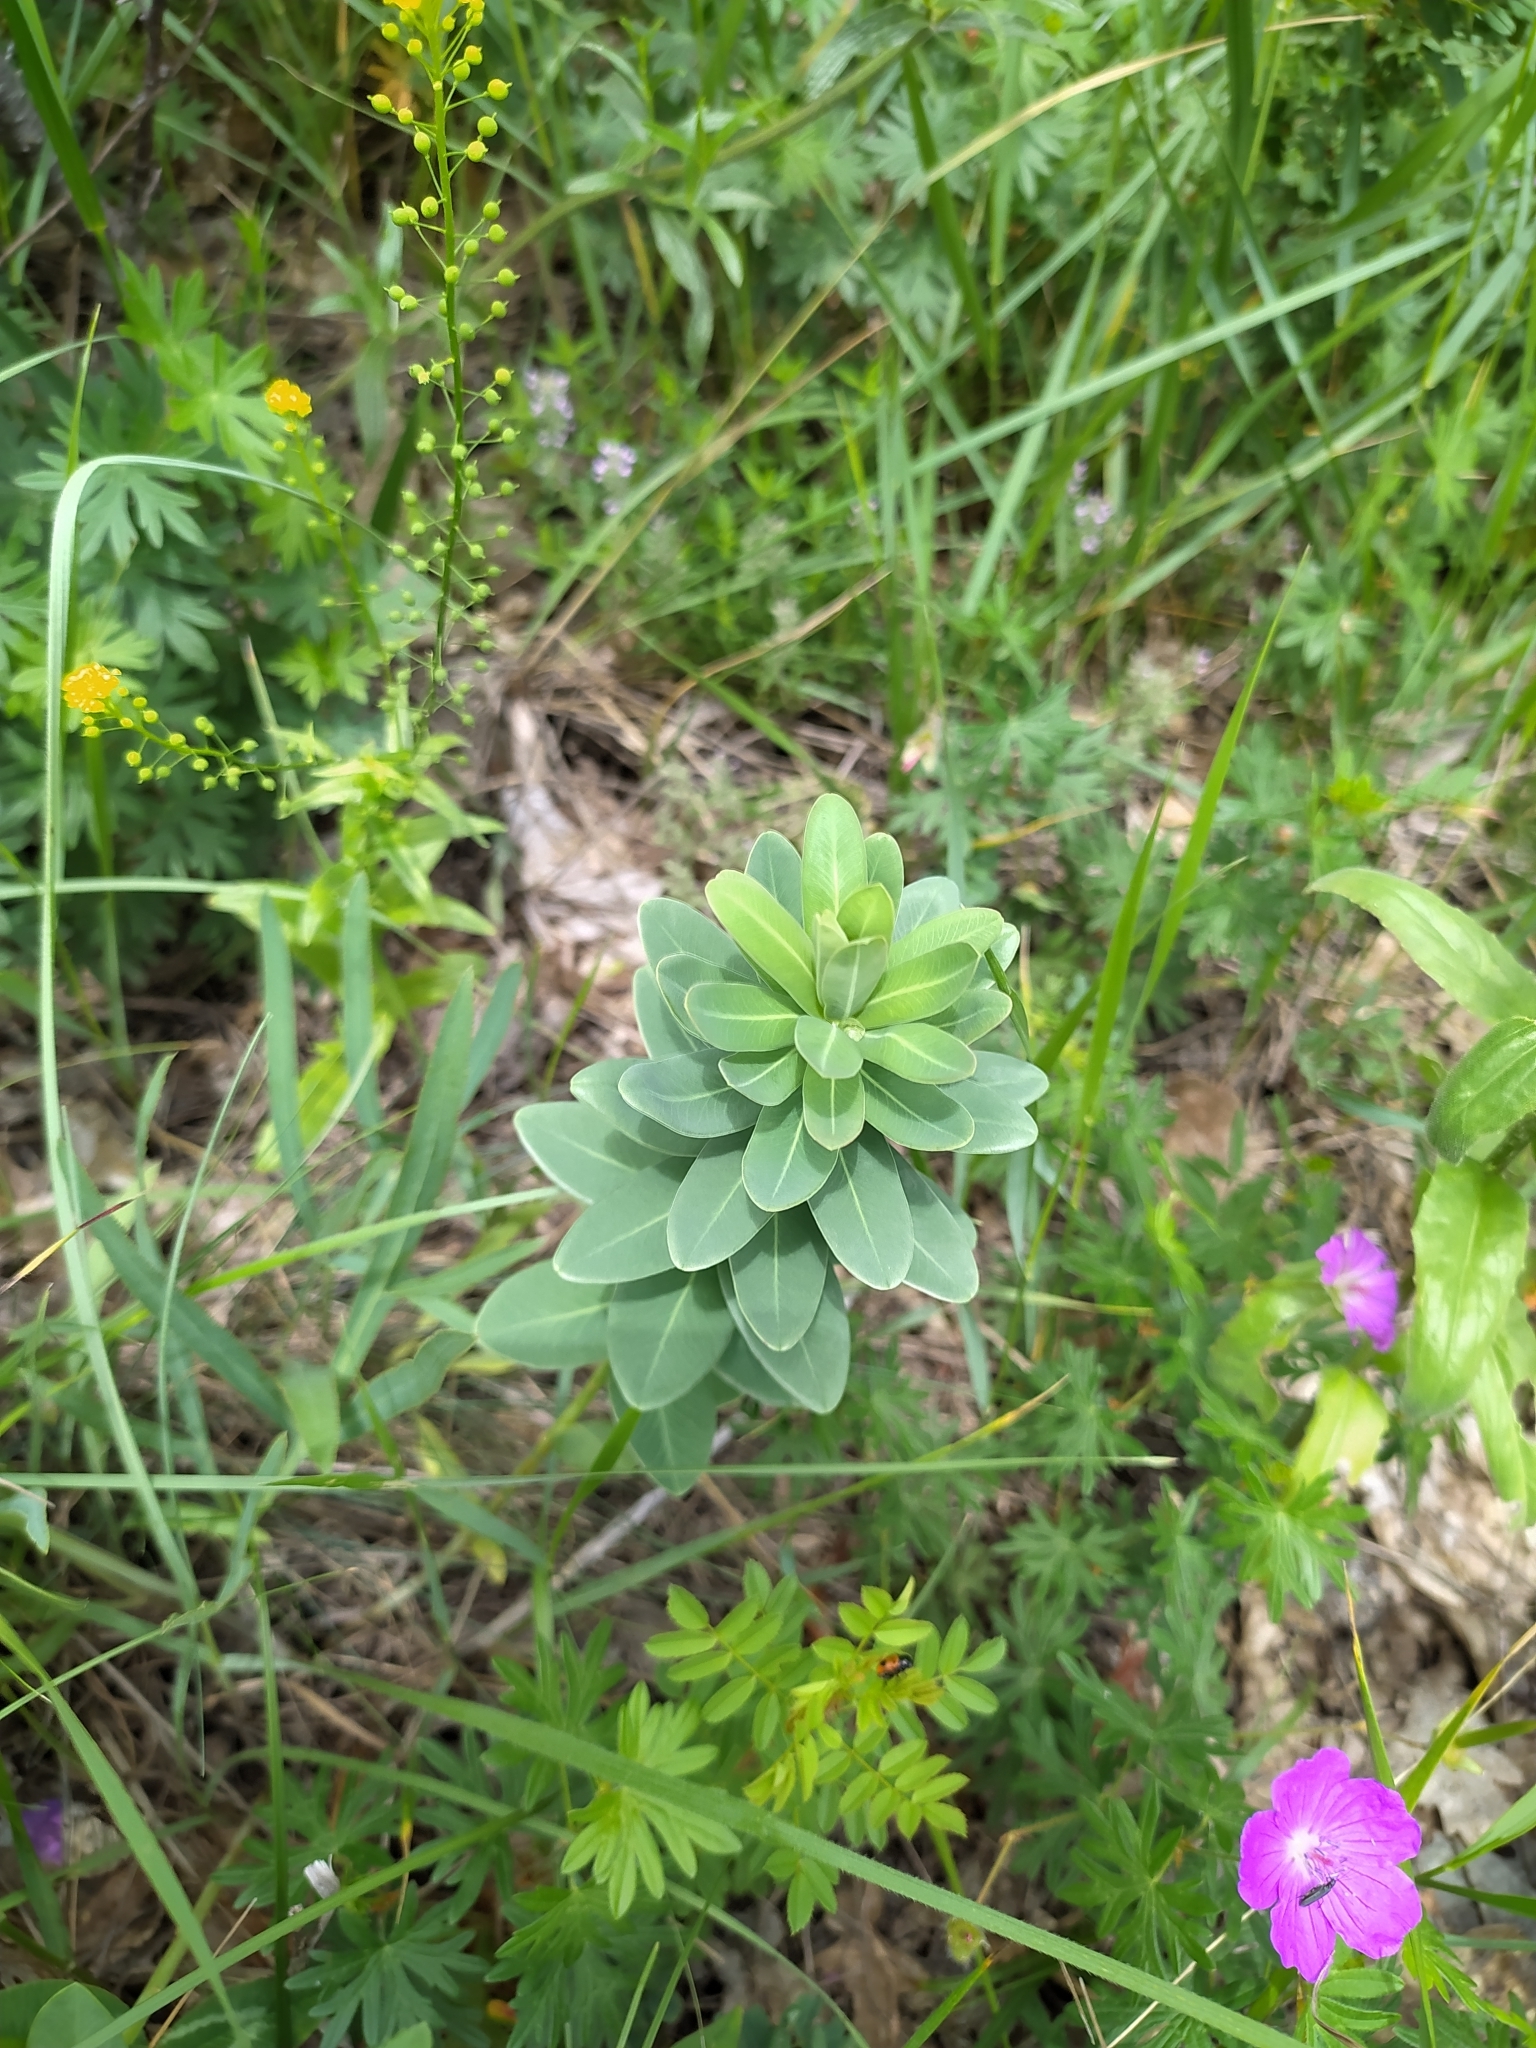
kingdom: Plantae
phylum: Tracheophyta
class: Magnoliopsida
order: Malpighiales
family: Euphorbiaceae
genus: Euphorbia
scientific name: Euphorbia iberica
